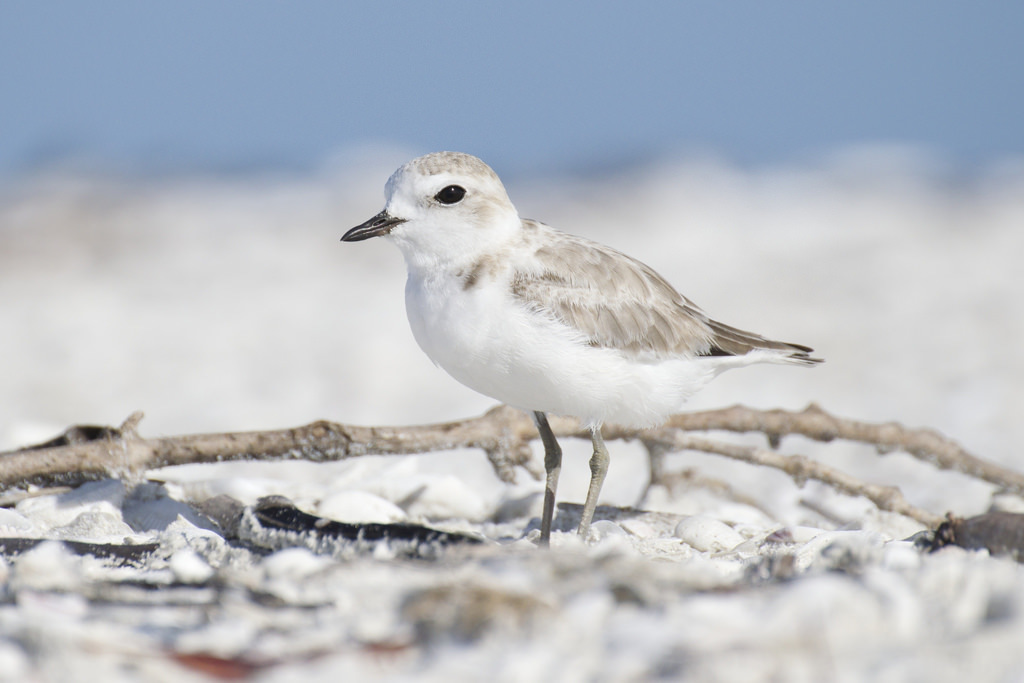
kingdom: Animalia
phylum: Chordata
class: Aves
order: Charadriiformes
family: Charadriidae
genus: Anarhynchus
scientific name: Anarhynchus
